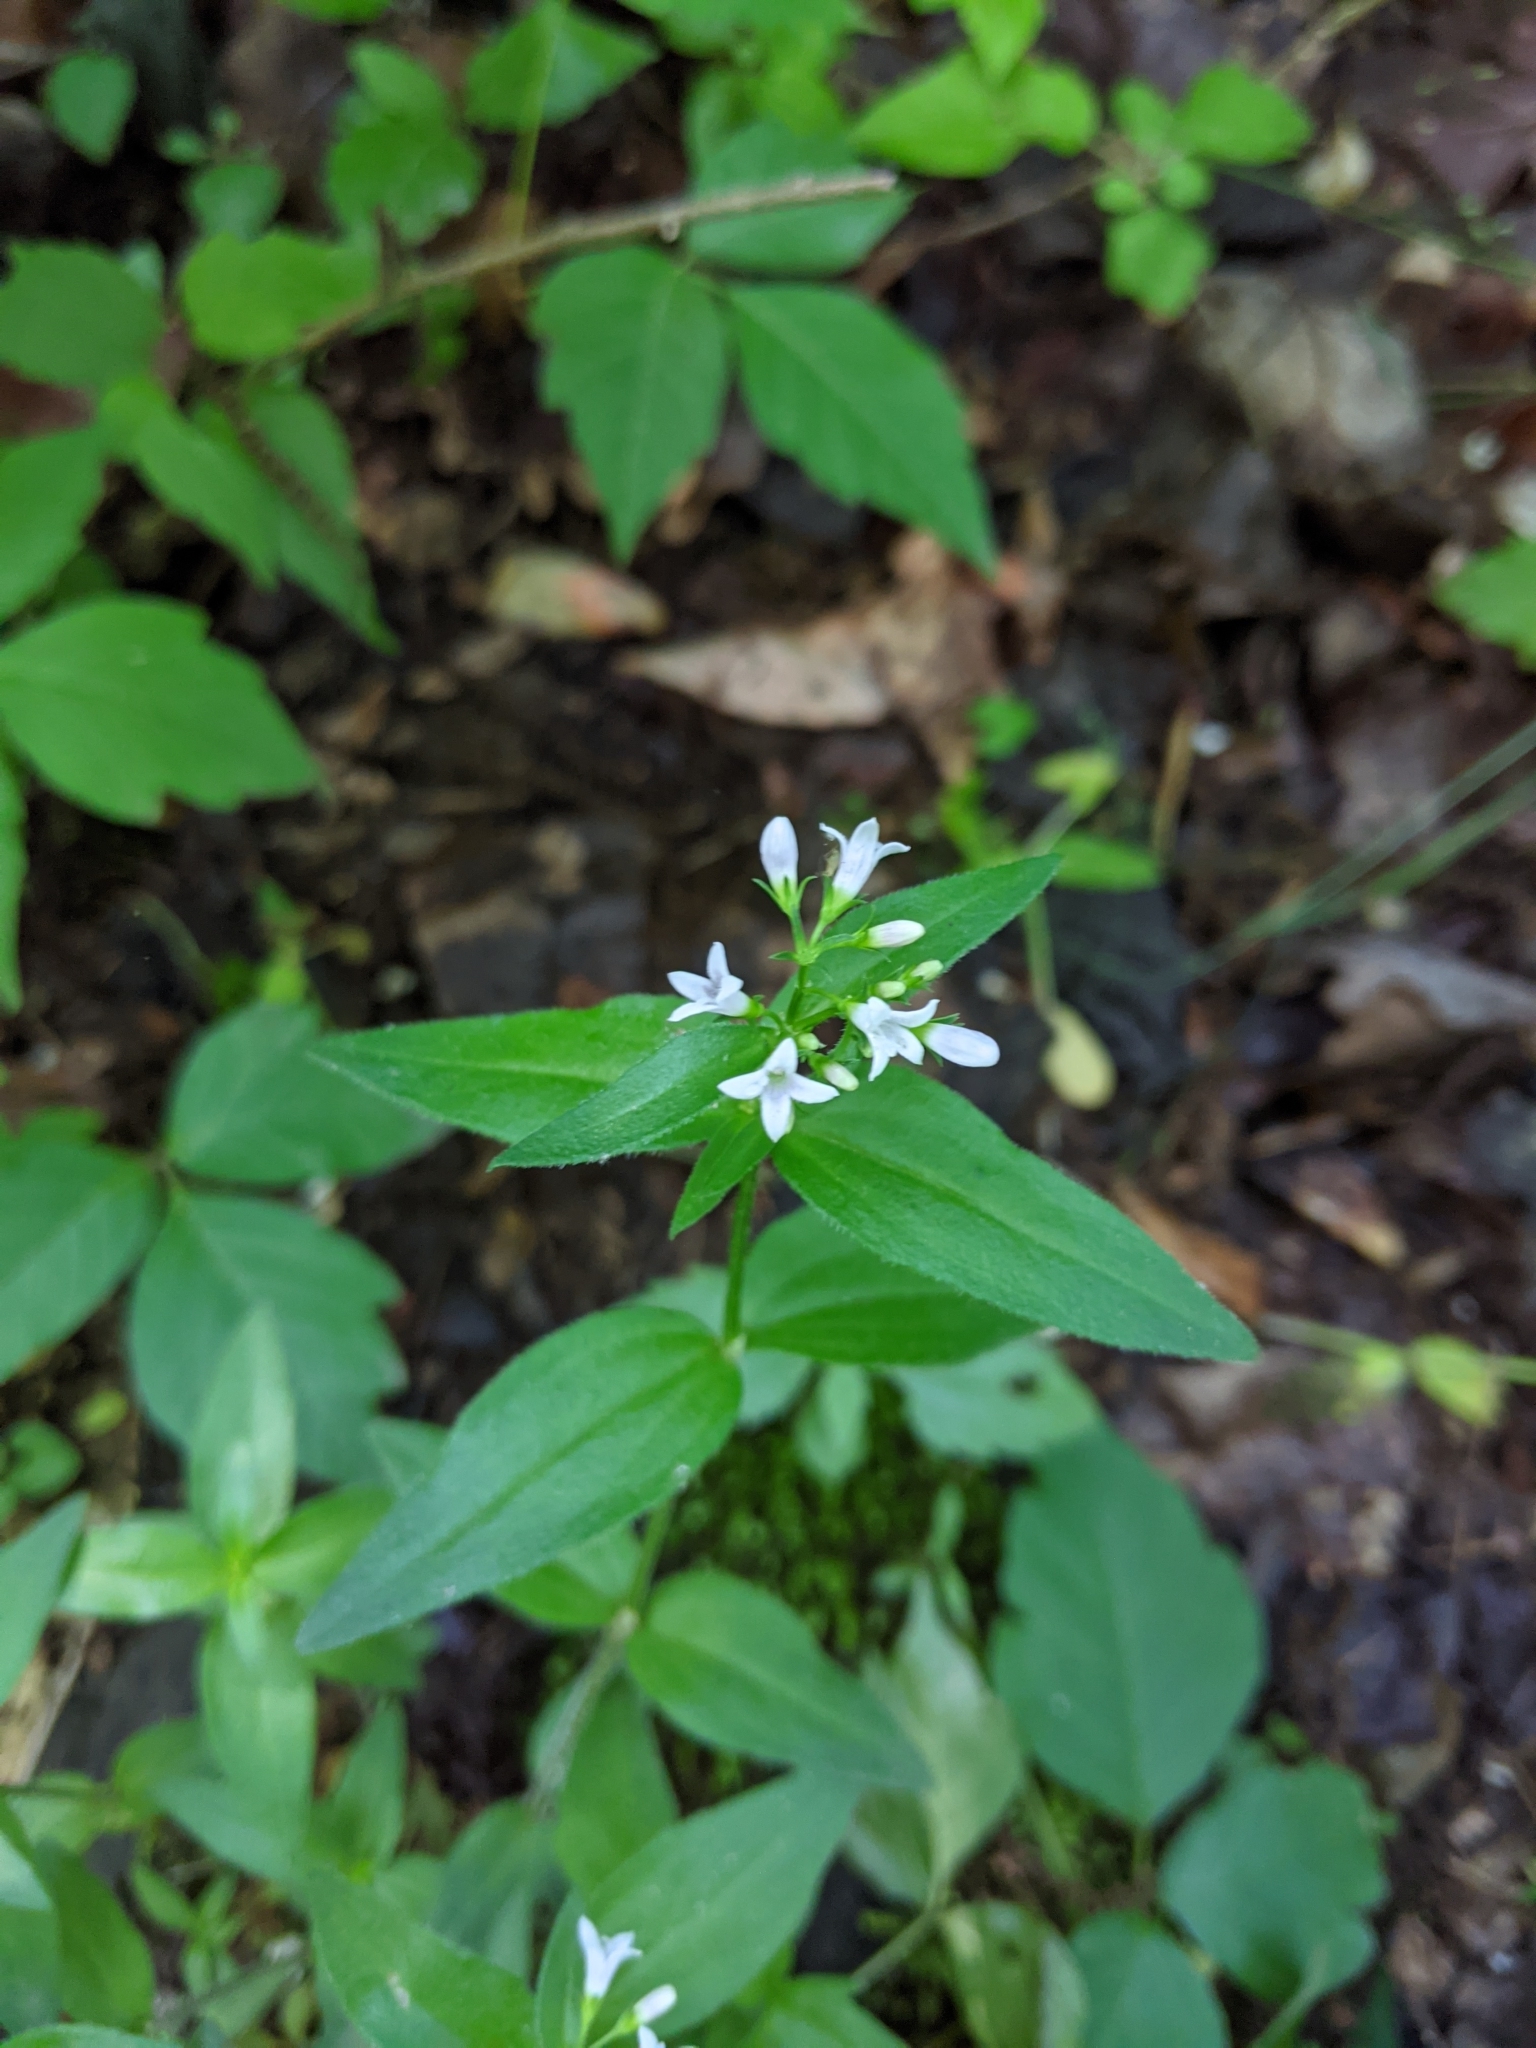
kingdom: Plantae
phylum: Tracheophyta
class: Magnoliopsida
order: Gentianales
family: Rubiaceae
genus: Houstonia
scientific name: Houstonia purpurea
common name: Summer bluet
